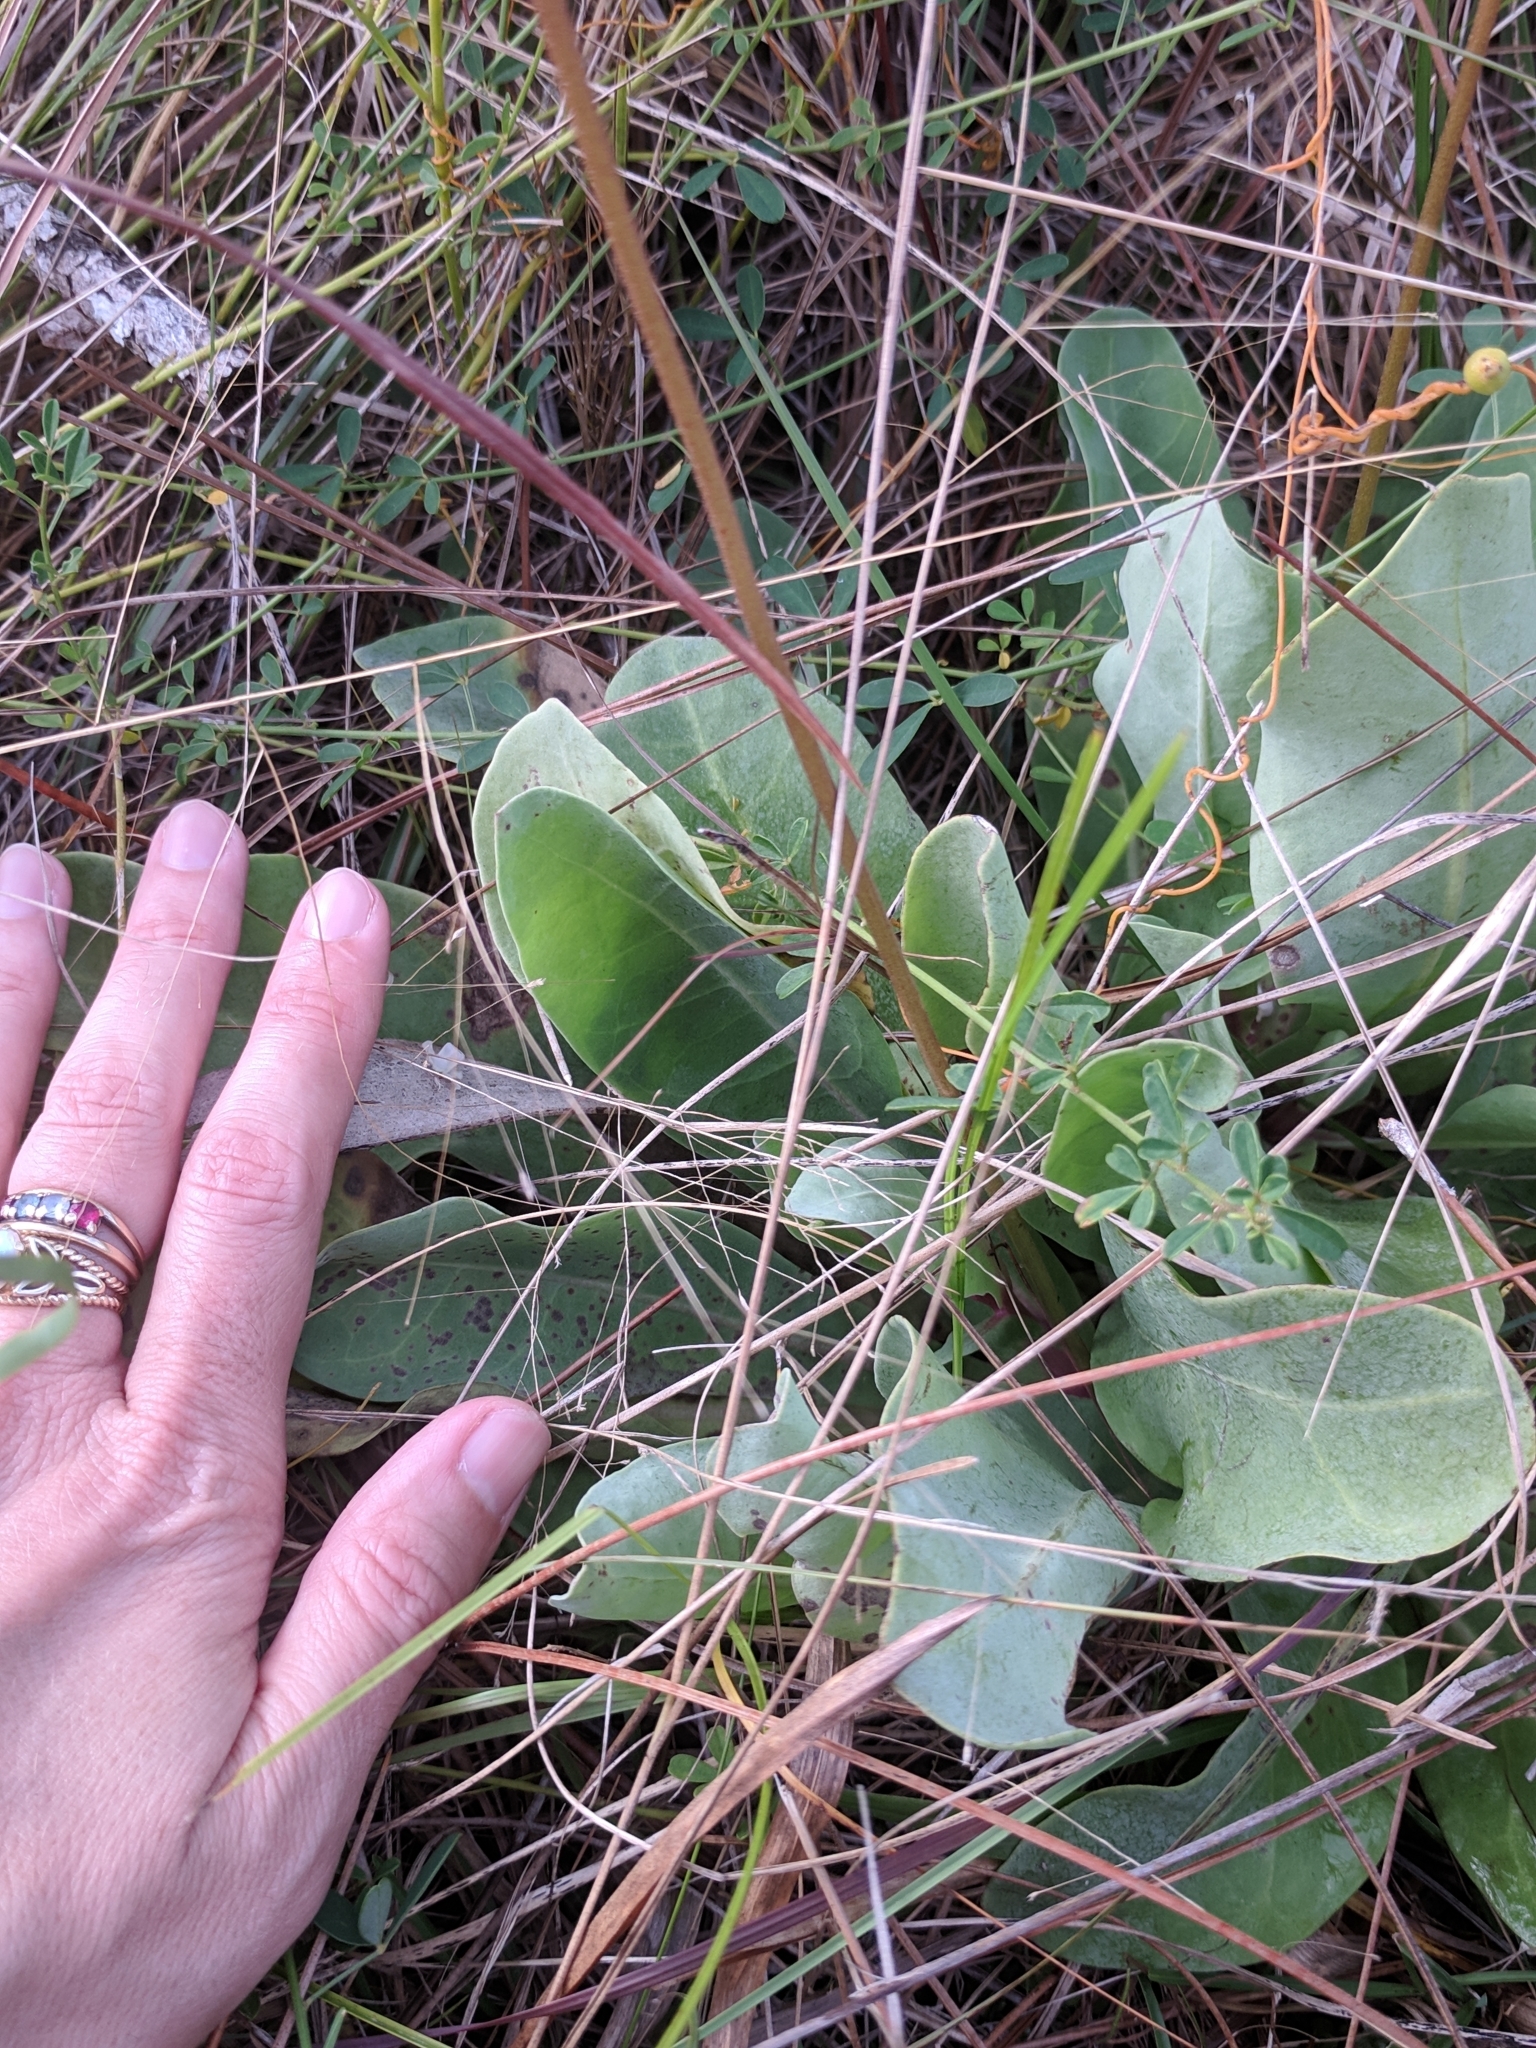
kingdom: Plantae
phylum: Tracheophyta
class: Magnoliopsida
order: Ericales
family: Primulaceae
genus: Samolus
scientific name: Samolus ebracteatus
